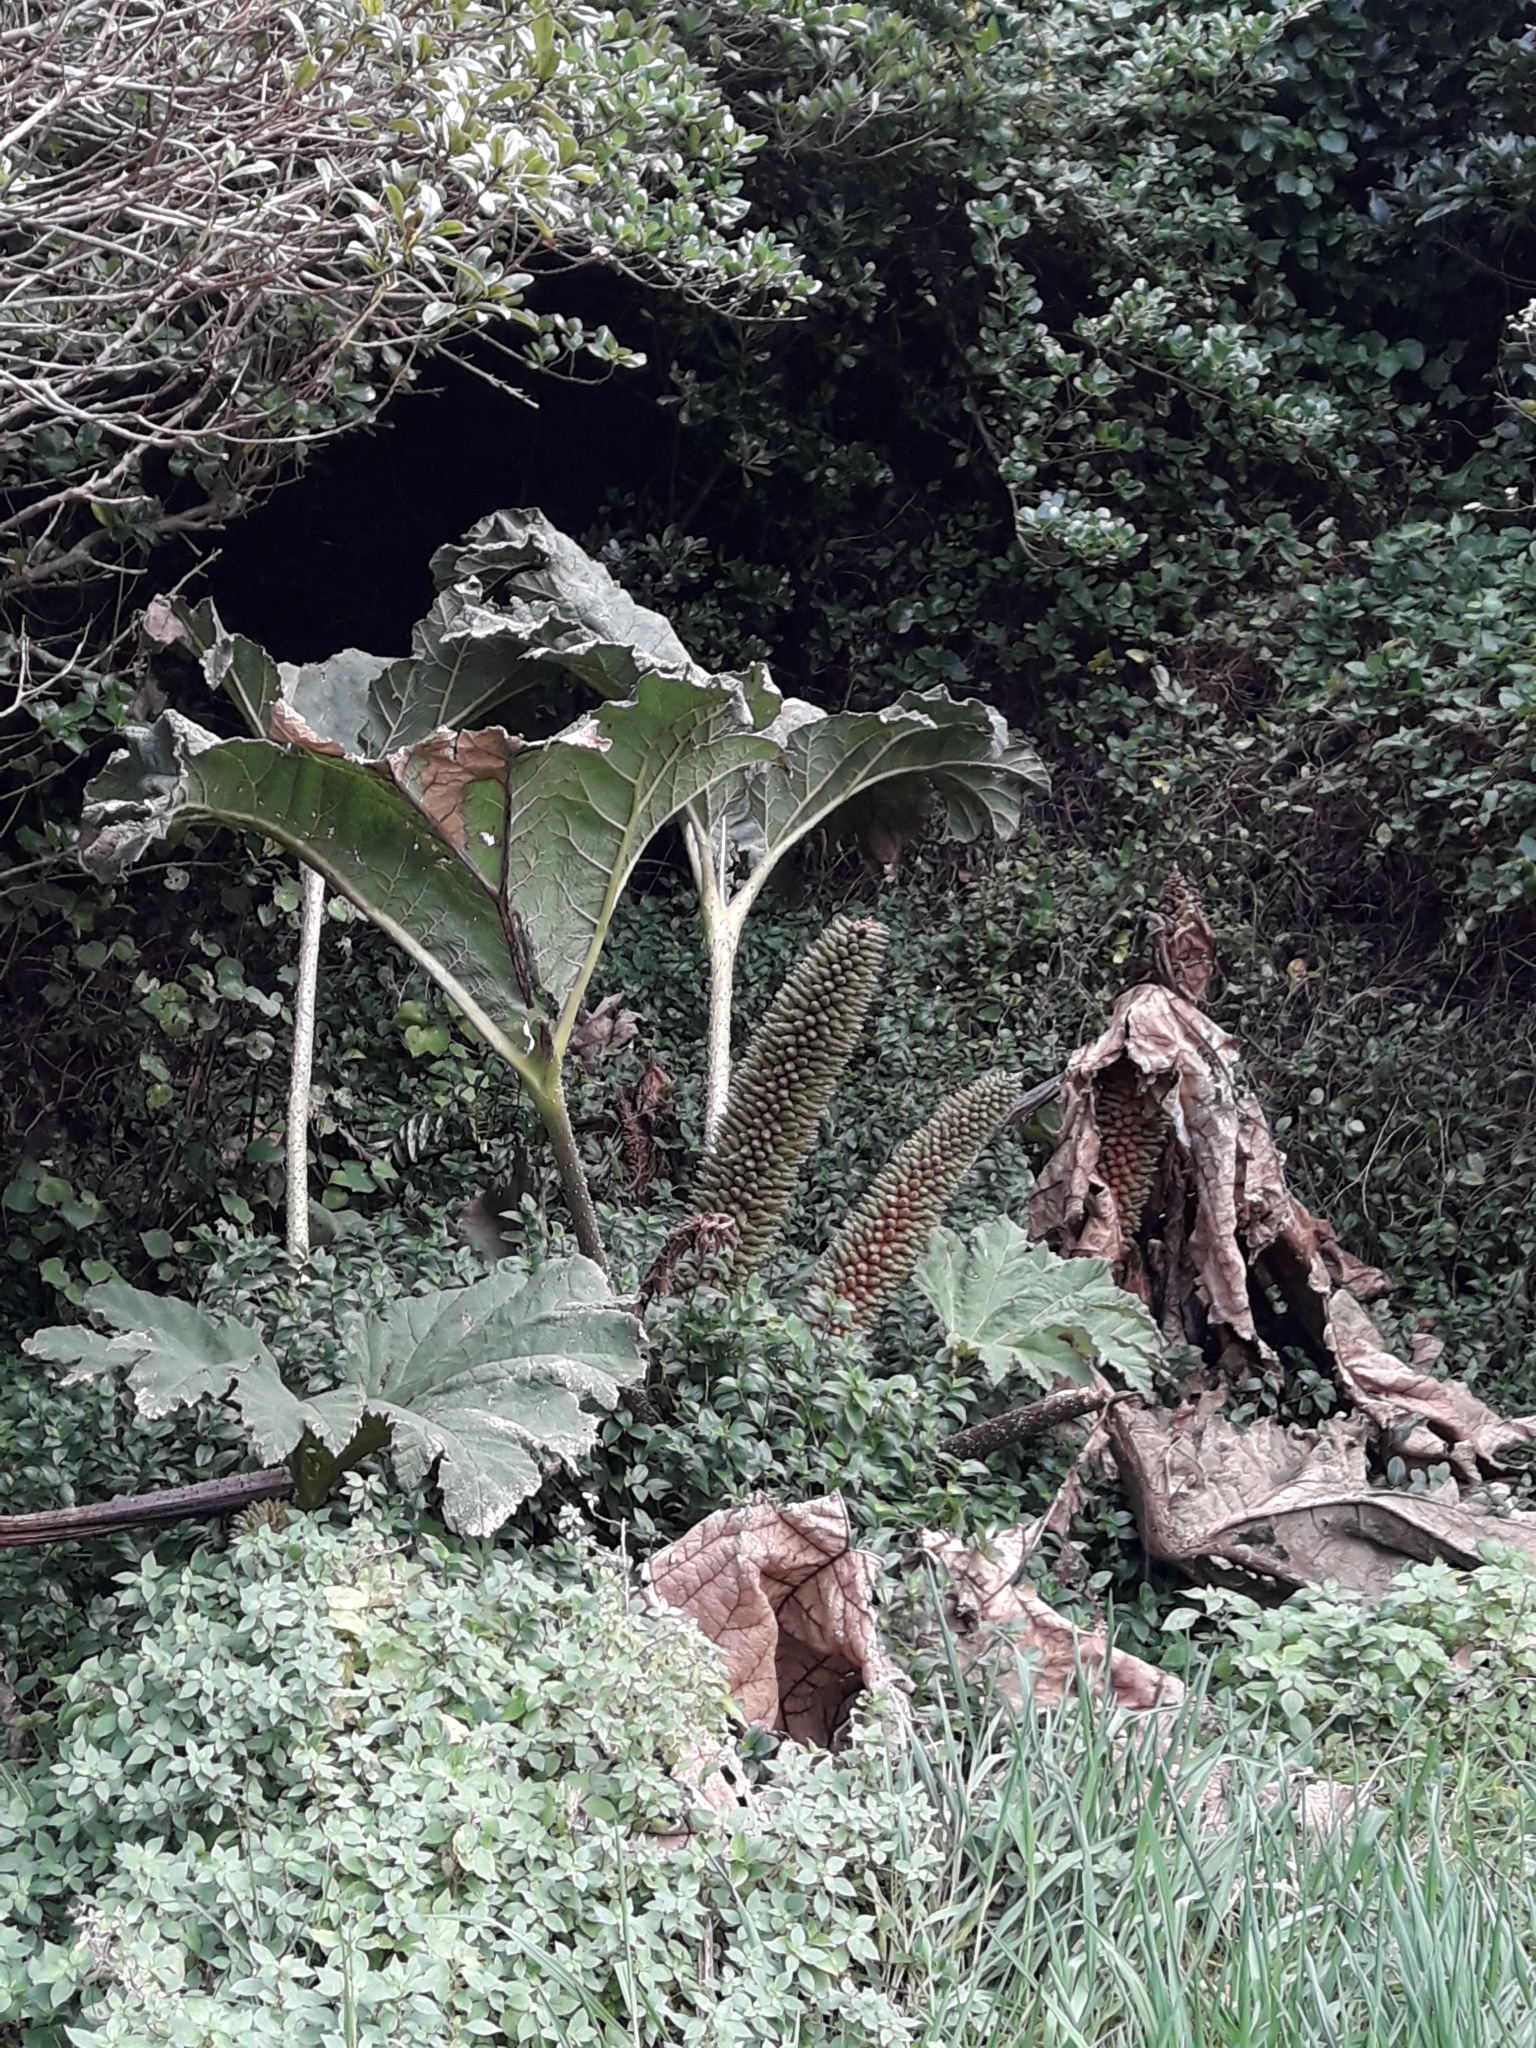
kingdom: Plantae
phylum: Tracheophyta
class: Magnoliopsida
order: Gunnerales
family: Gunneraceae
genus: Gunnera
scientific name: Gunnera tinctoria
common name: Giant-rhubarb
